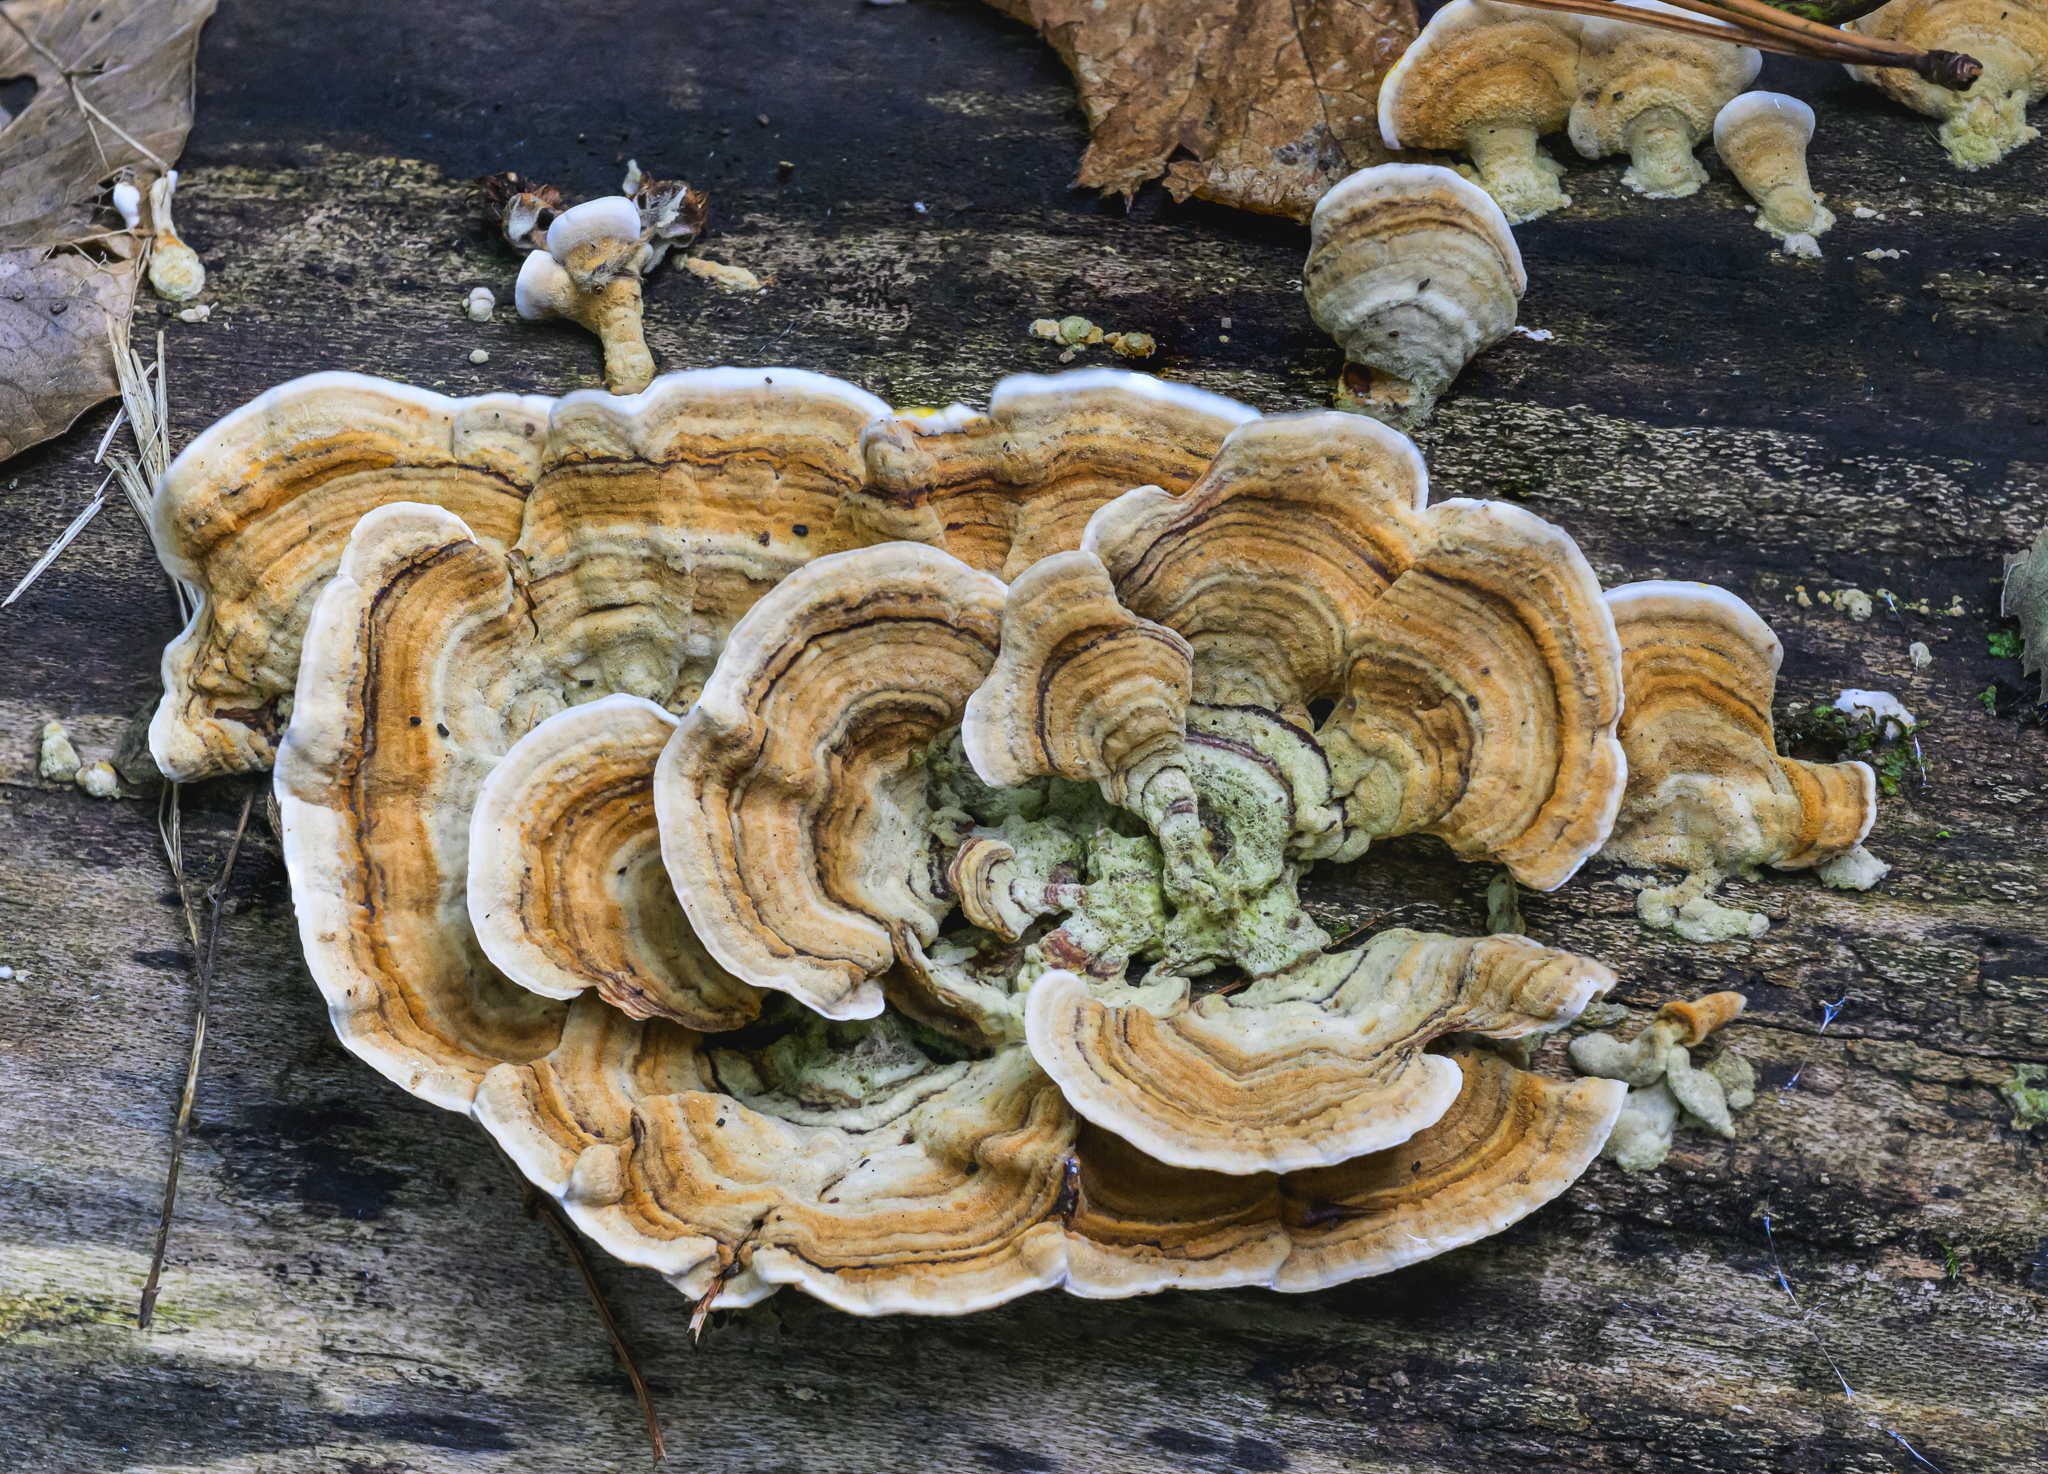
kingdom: Fungi
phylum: Basidiomycota
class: Agaricomycetes
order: Polyporales
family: Polyporaceae
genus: Trametes
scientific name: Trametes versicolor
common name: Turkeytail
